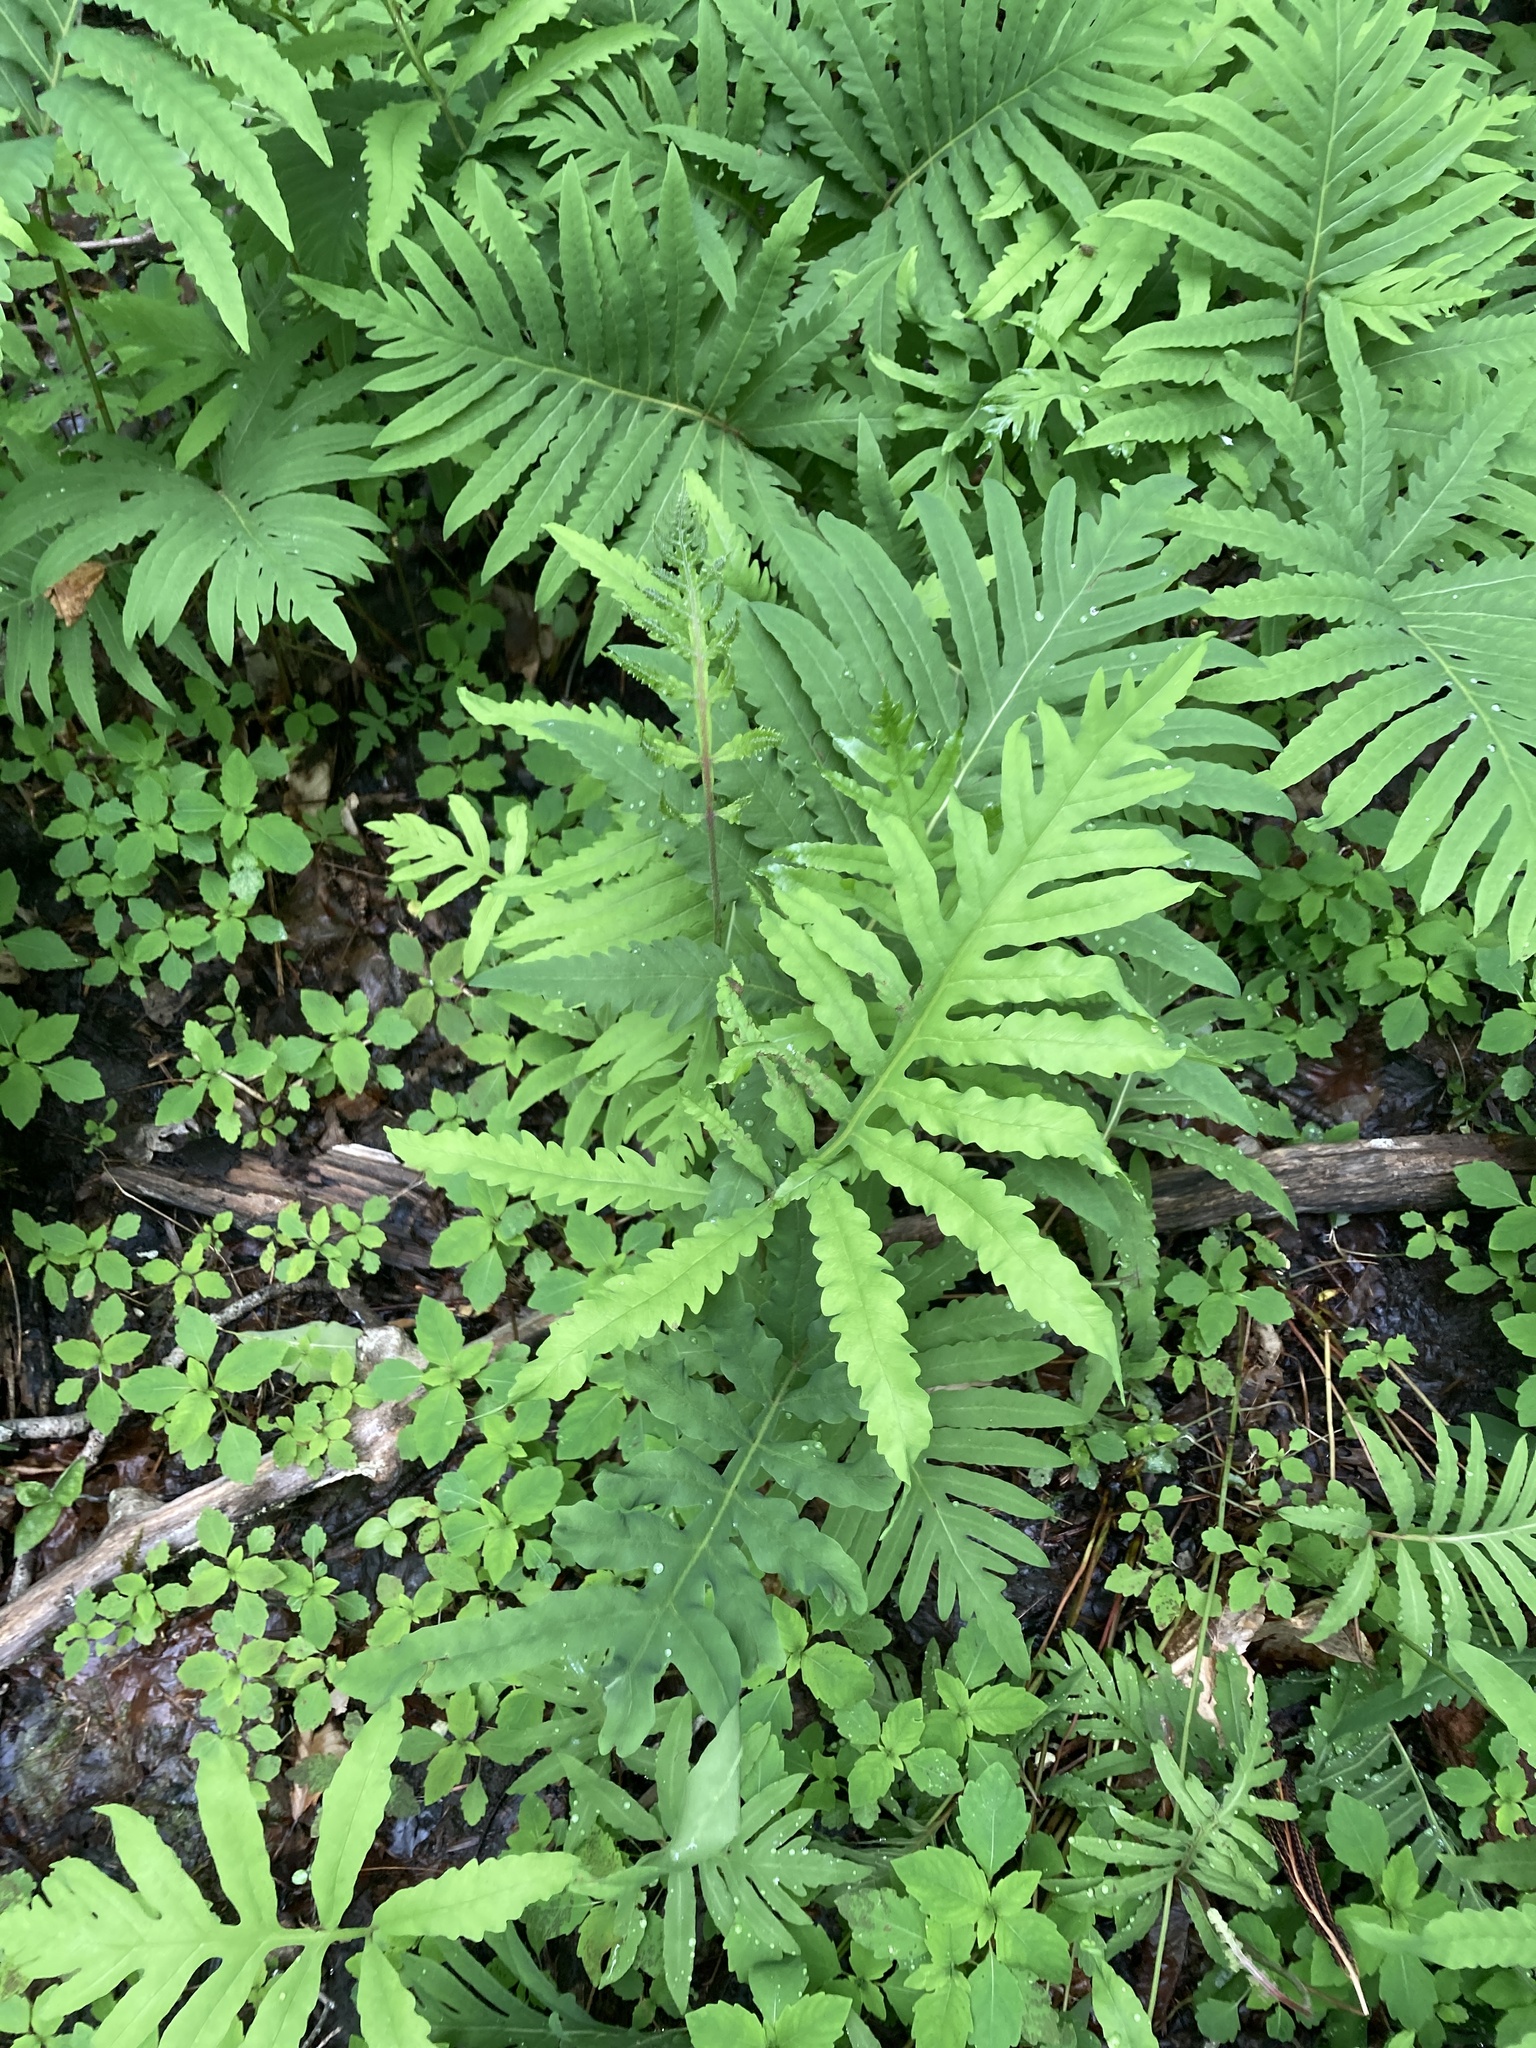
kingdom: Plantae
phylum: Tracheophyta
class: Polypodiopsida
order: Polypodiales
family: Onocleaceae
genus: Onoclea
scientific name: Onoclea sensibilis
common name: Sensitive fern
